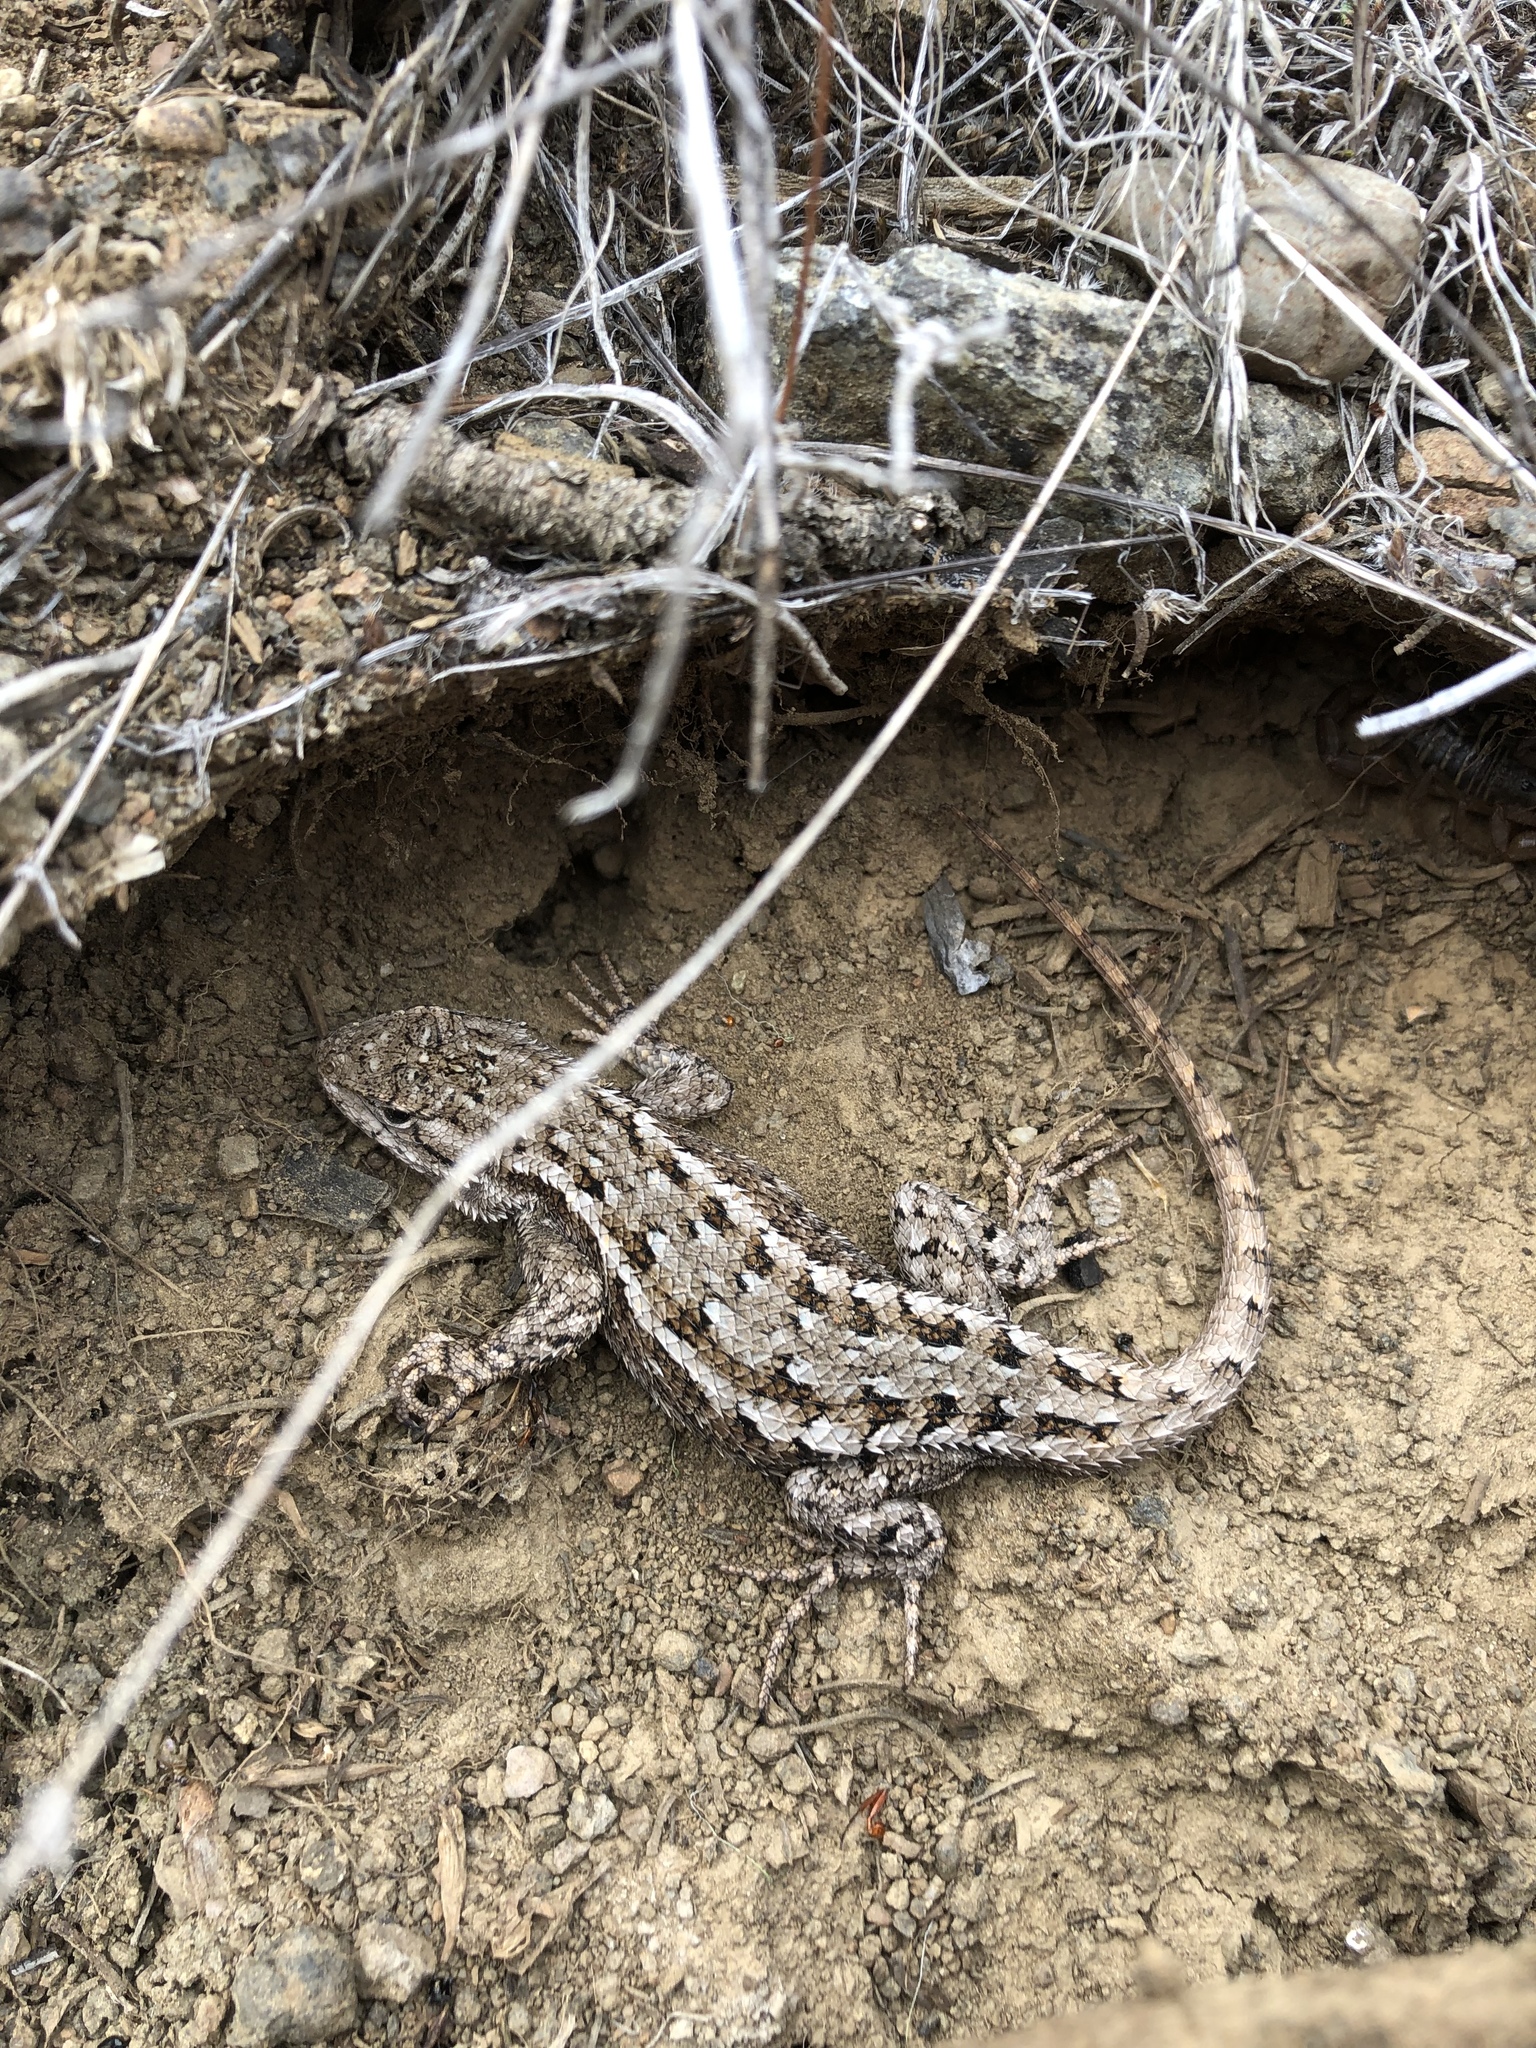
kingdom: Animalia
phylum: Chordata
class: Squamata
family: Phrynosomatidae
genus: Sceloporus
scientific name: Sceloporus occidentalis
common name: Western fence lizard
